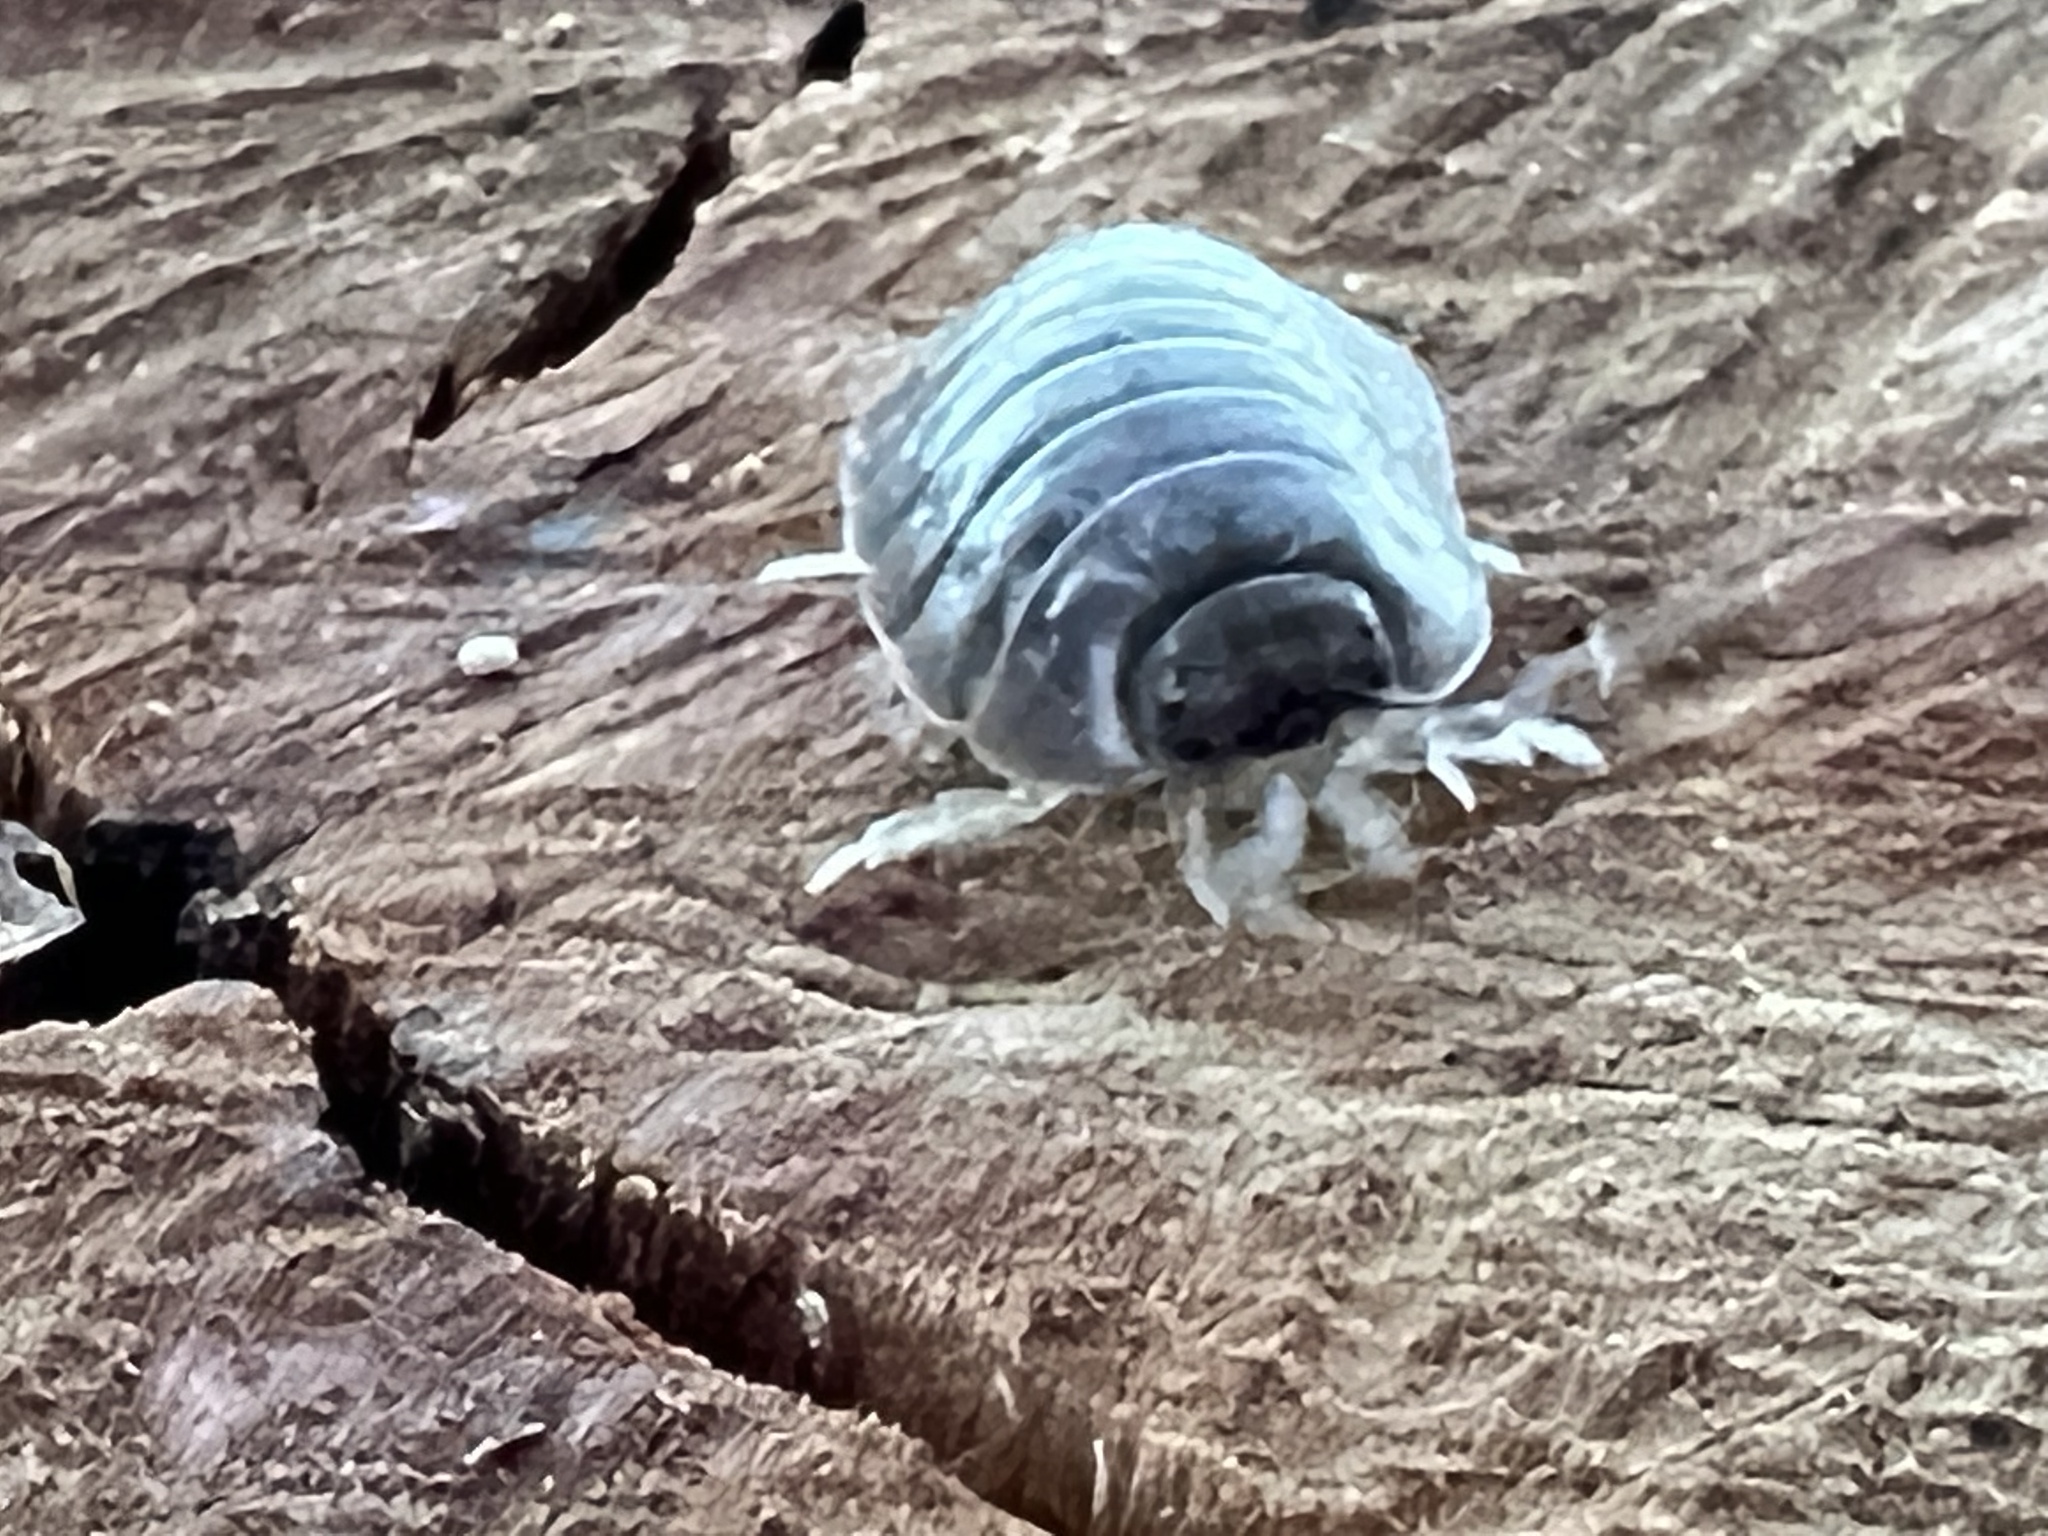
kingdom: Animalia
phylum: Arthropoda
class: Malacostraca
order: Isopoda
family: Porcellionidae
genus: Porcellio
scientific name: Porcellio laevis
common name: Swift woodlouse
